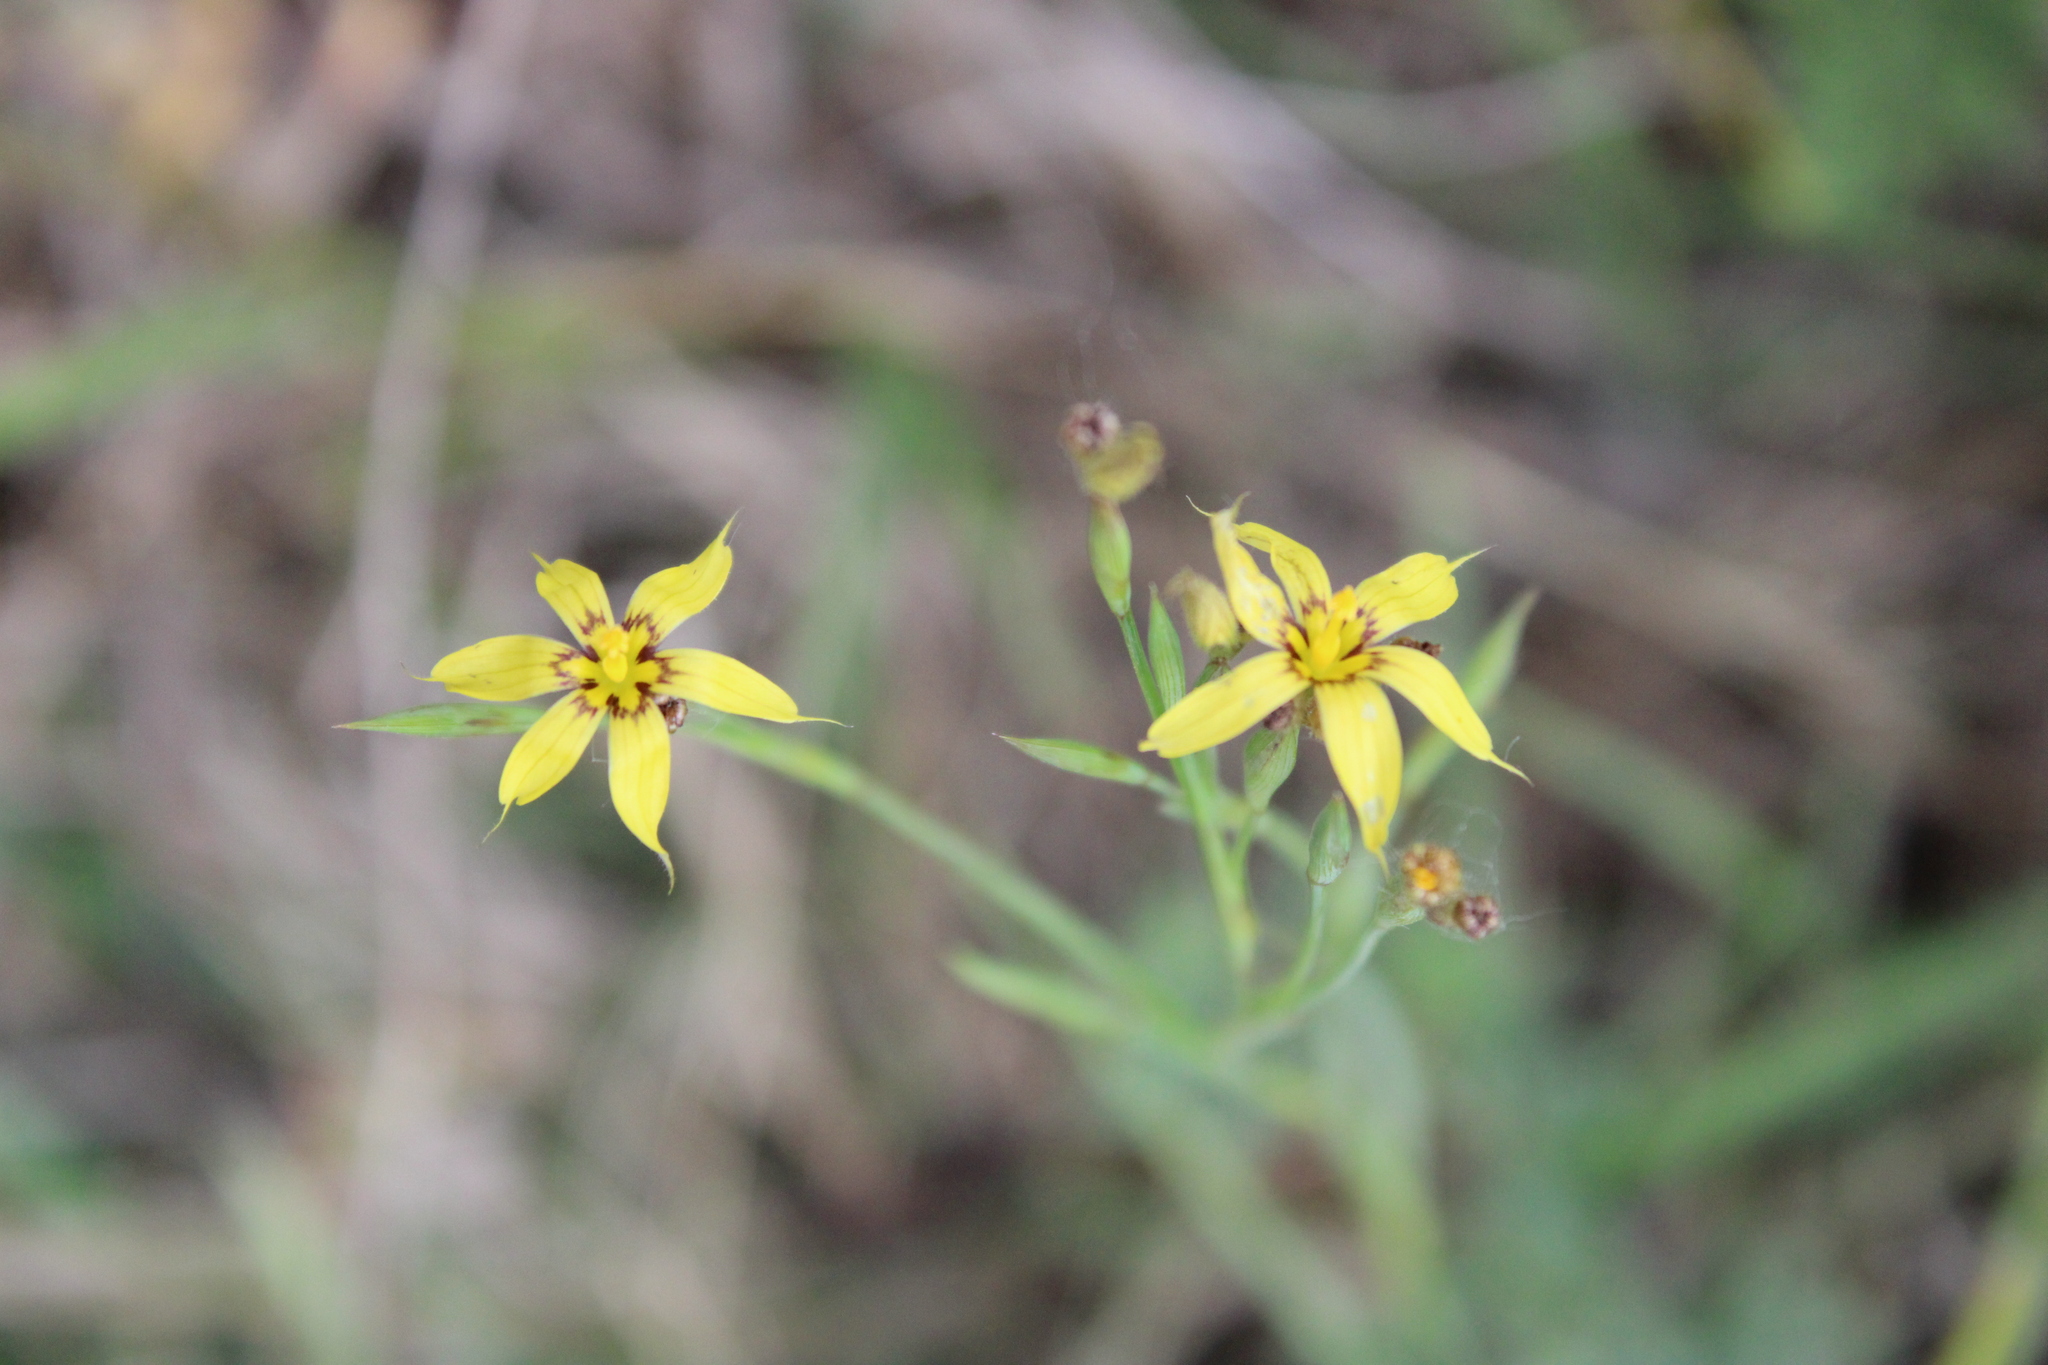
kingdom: Plantae
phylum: Tracheophyta
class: Liliopsida
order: Asparagales
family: Iridaceae
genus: Sisyrinchium
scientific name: Sisyrinchium pachyrhizum
